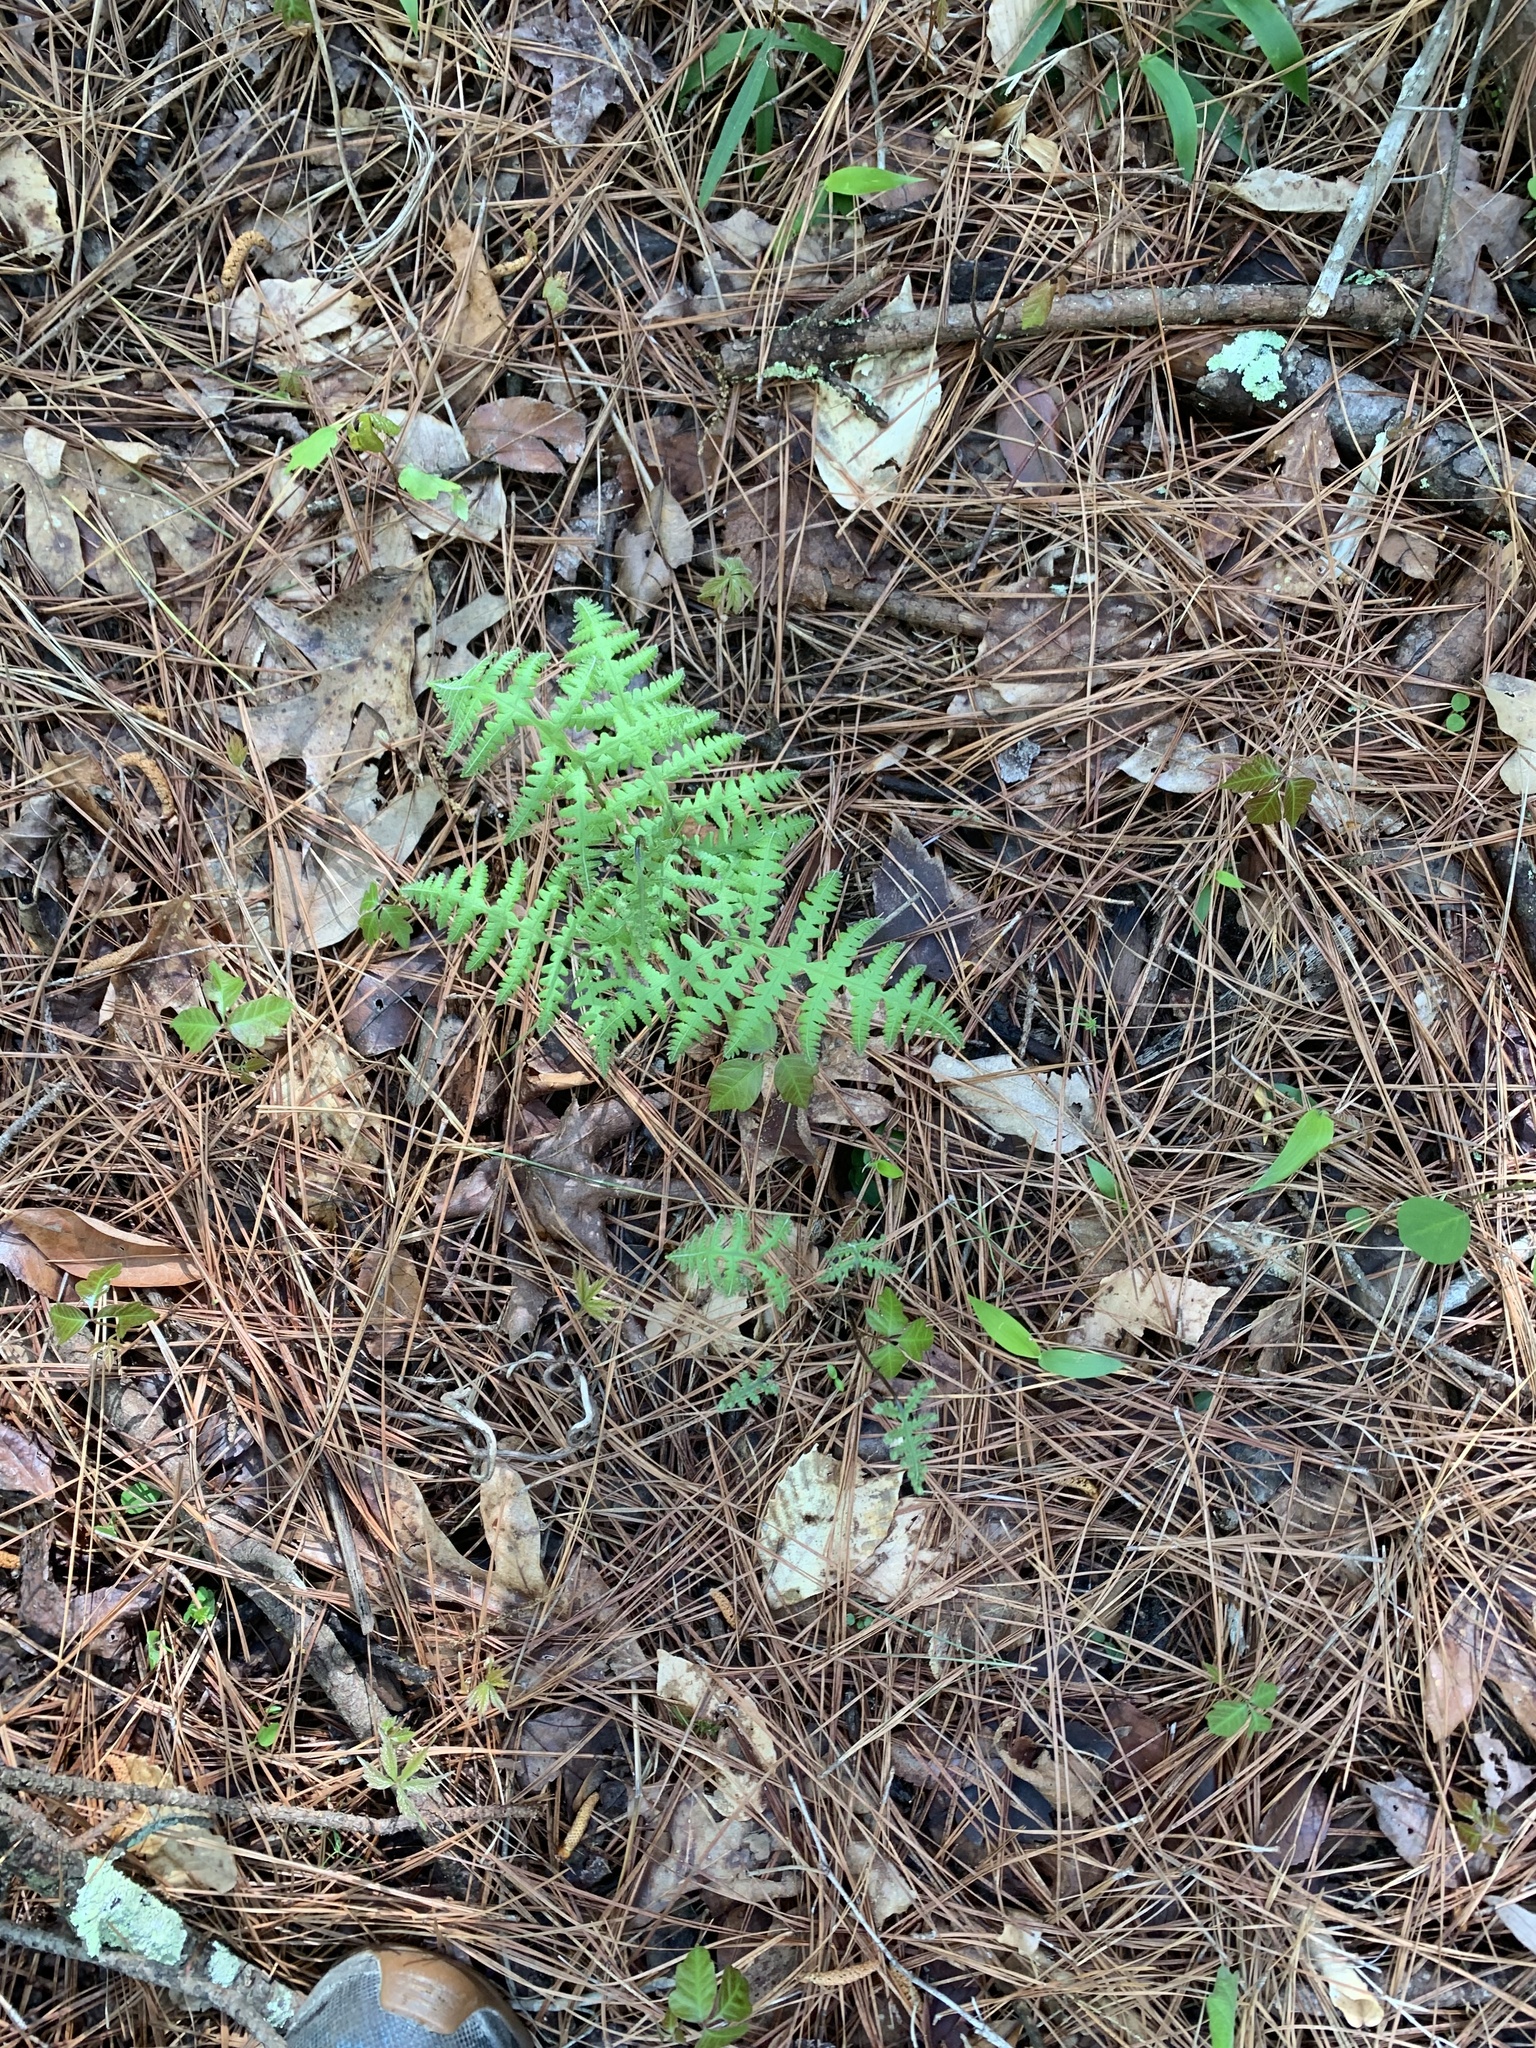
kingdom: Plantae
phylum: Tracheophyta
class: Polypodiopsida
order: Polypodiales
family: Thelypteridaceae
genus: Phegopteris
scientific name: Phegopteris hexagonoptera
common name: Broad beech fern
